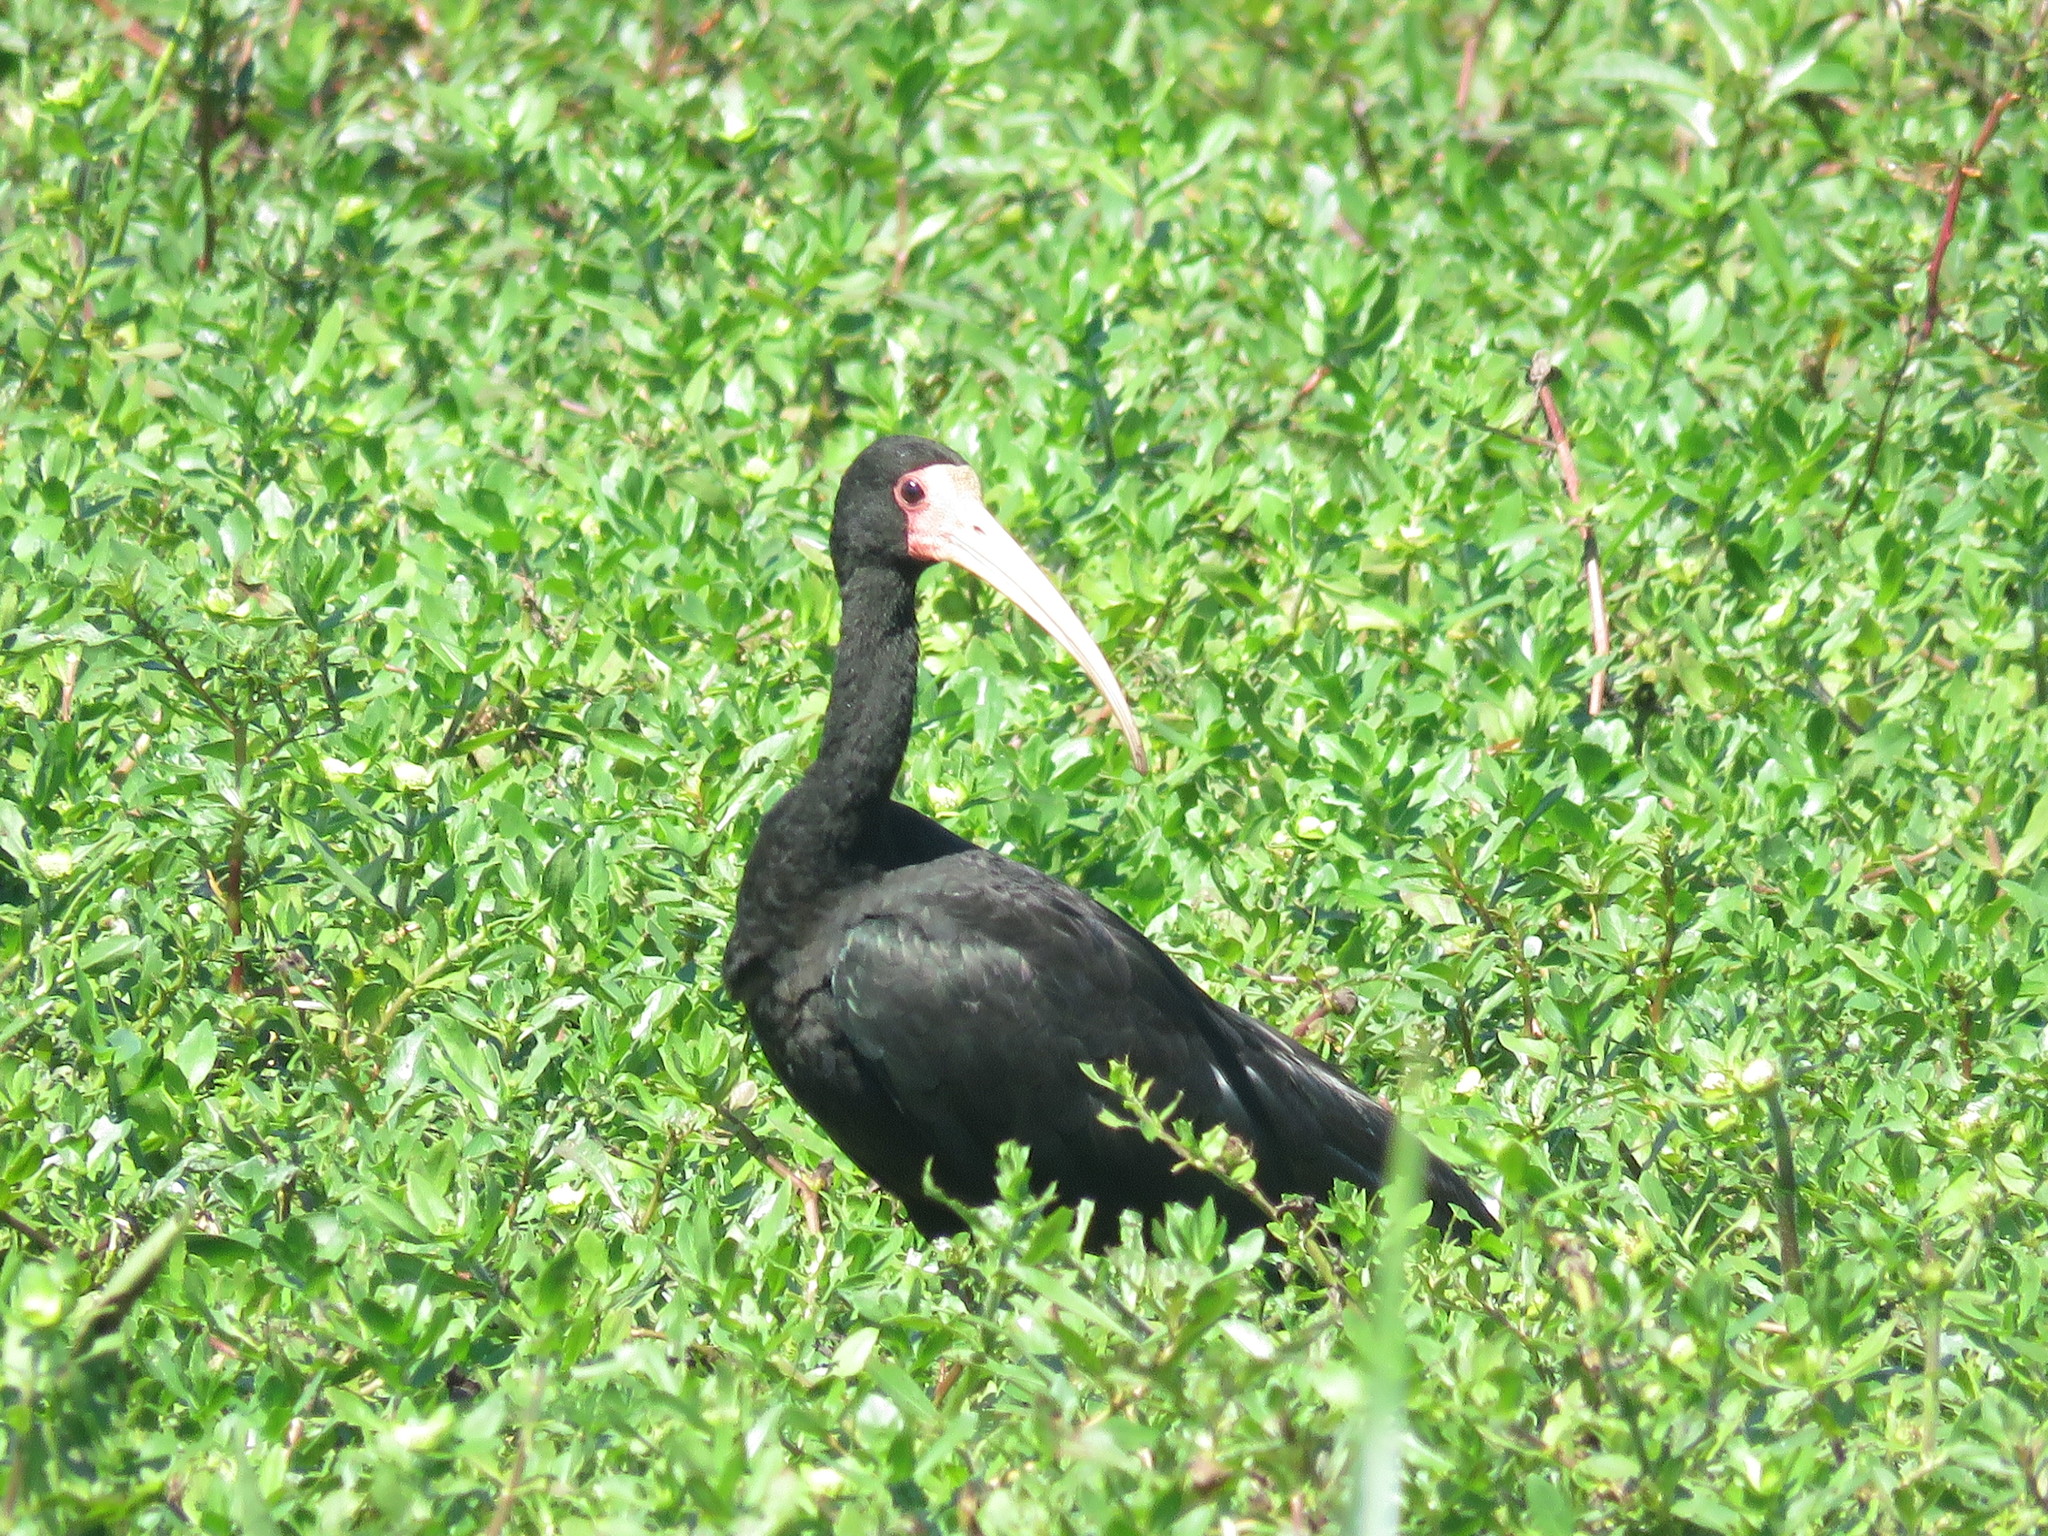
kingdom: Animalia
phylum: Chordata
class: Aves
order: Pelecaniformes
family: Threskiornithidae
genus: Phimosus
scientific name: Phimosus infuscatus
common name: Bare-faced ibis
